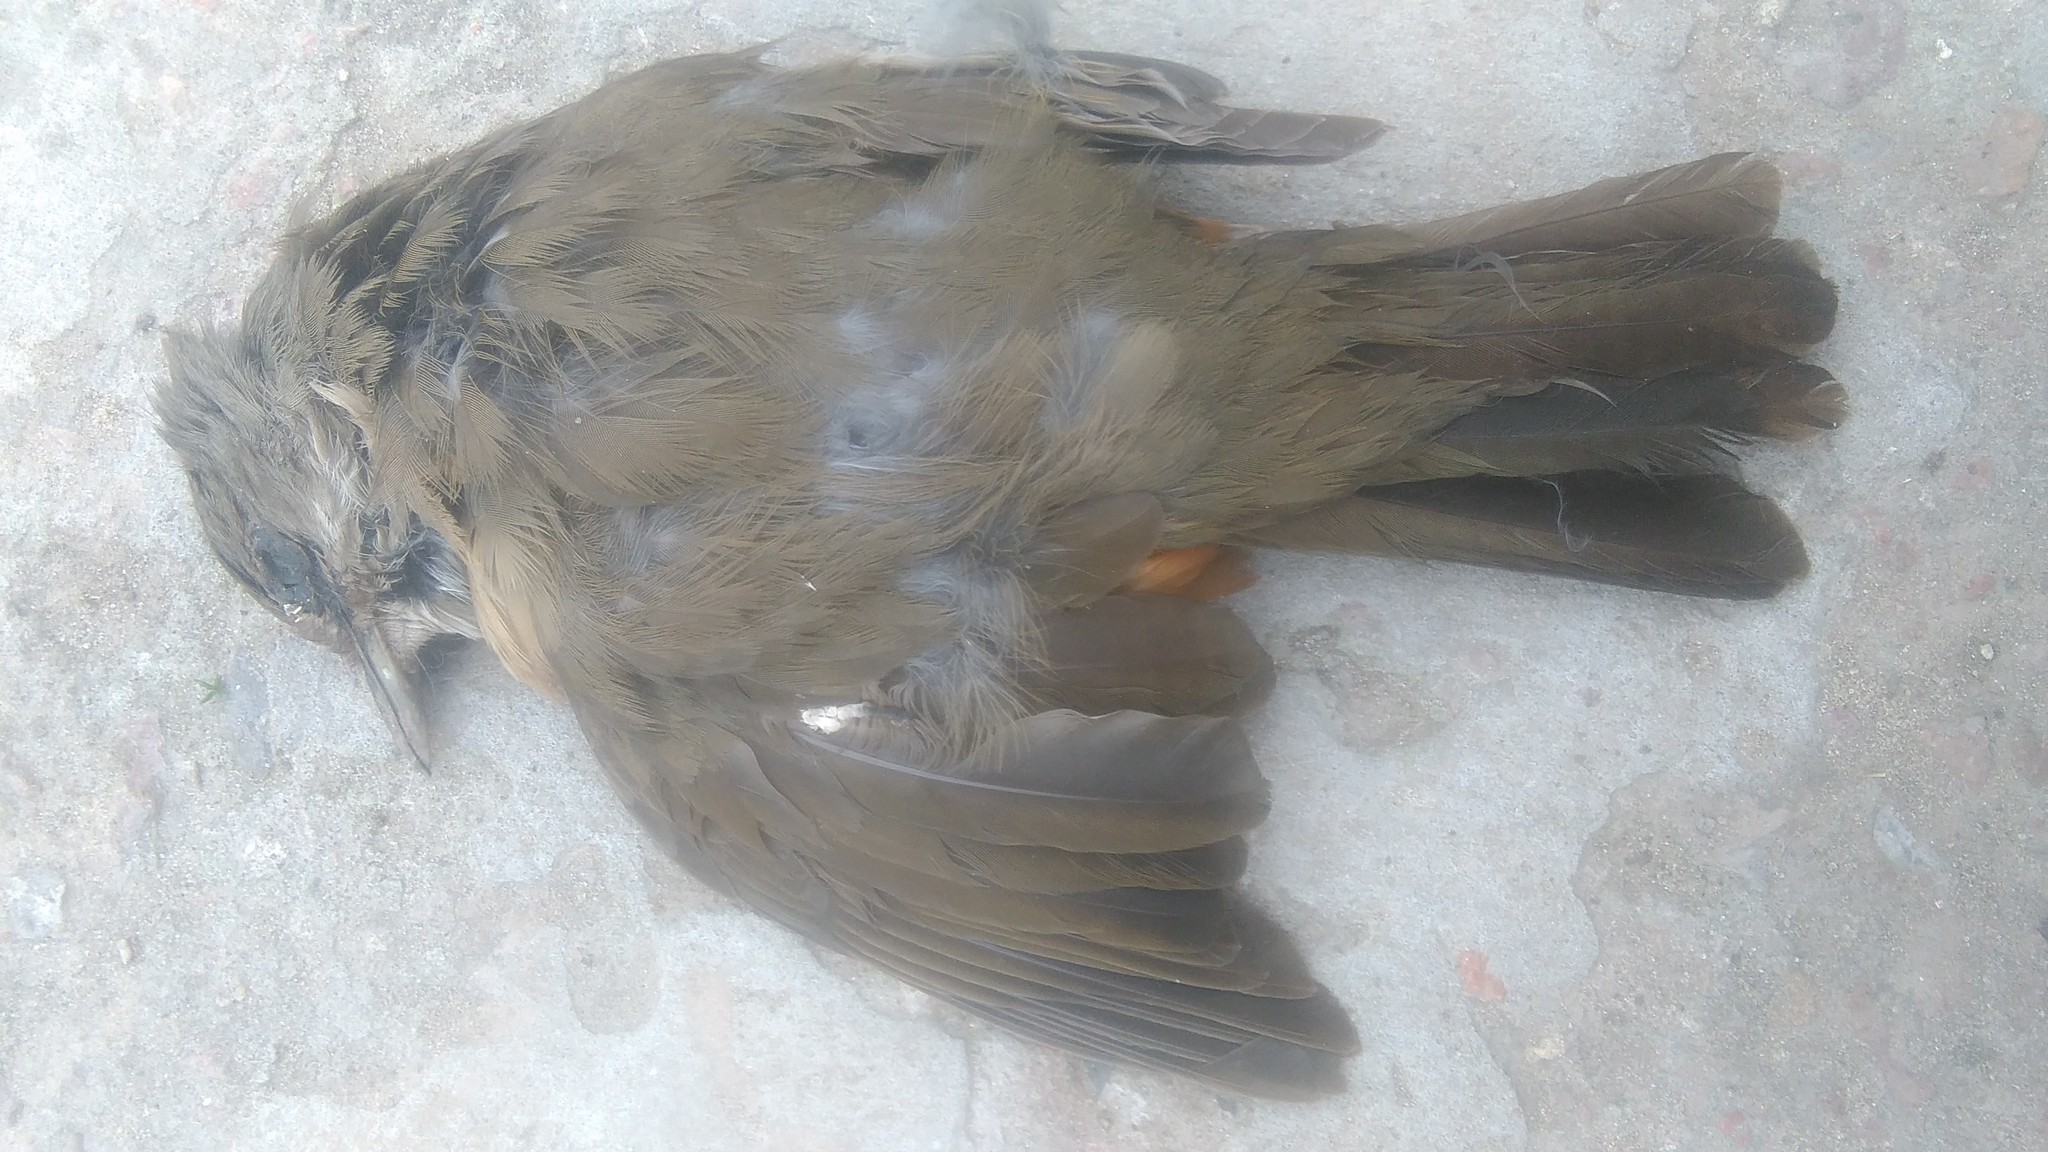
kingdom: Animalia
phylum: Chordata
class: Aves
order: Passeriformes
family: Turdidae
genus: Turdus
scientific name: Turdus rufiventris
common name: Rufous-bellied thrush
